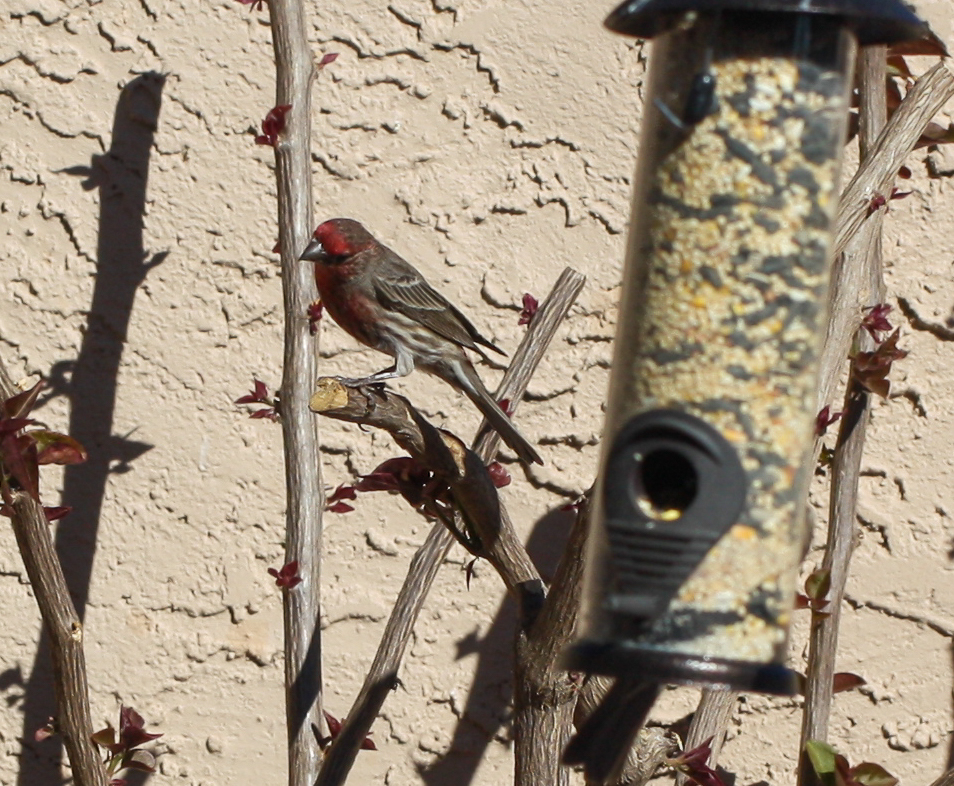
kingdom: Animalia
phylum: Chordata
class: Aves
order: Passeriformes
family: Fringillidae
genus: Haemorhous
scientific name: Haemorhous mexicanus
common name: House finch
